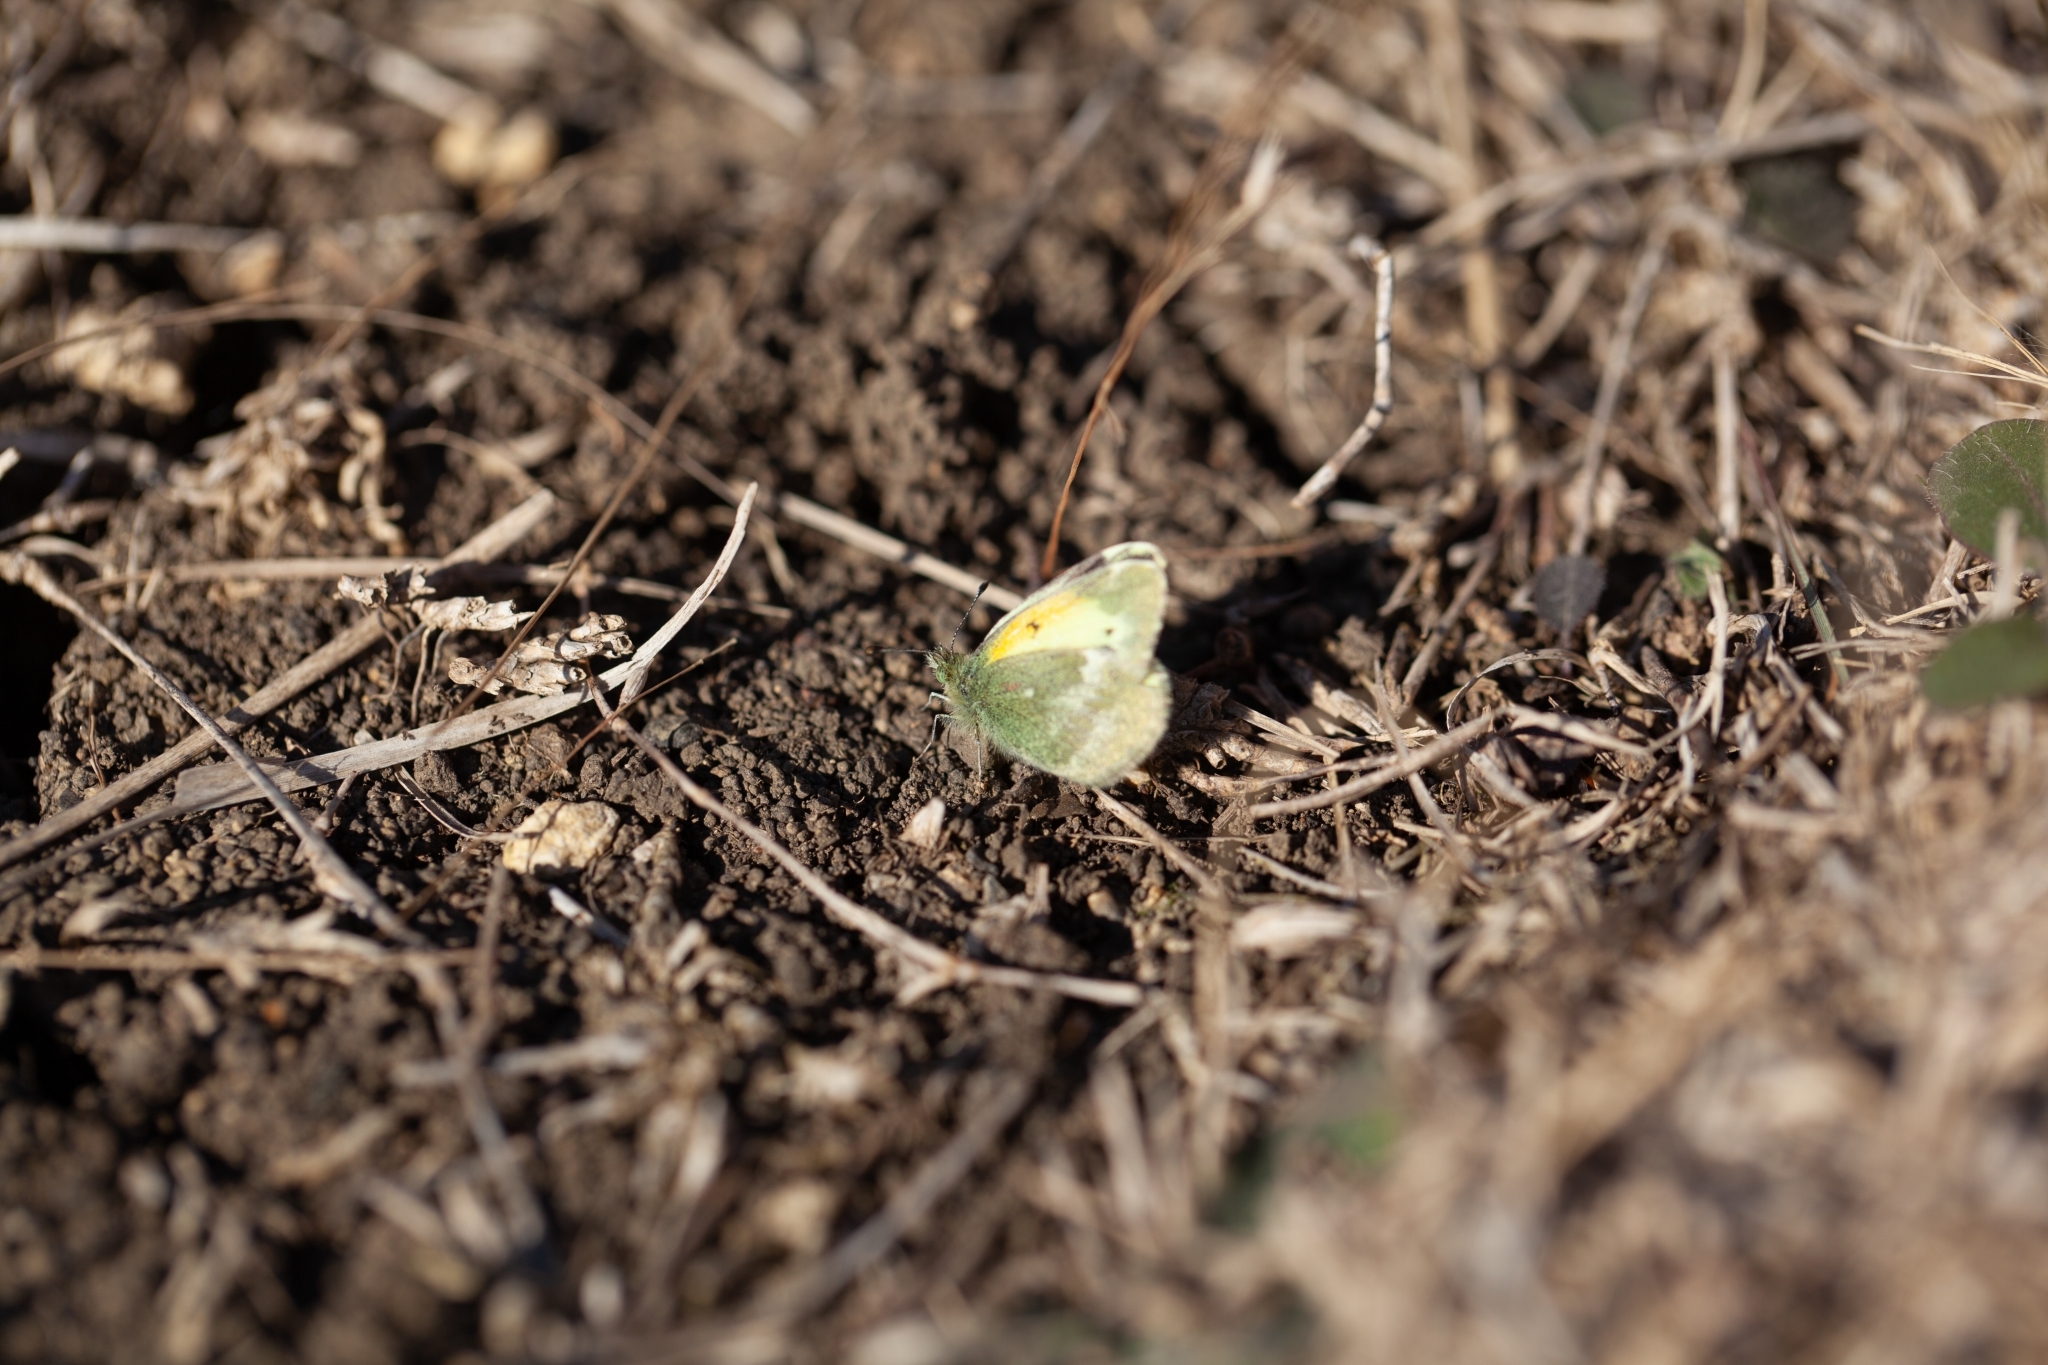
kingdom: Animalia
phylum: Arthropoda
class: Insecta
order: Lepidoptera
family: Pieridae
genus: Nathalis
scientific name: Nathalis iole
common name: Dainty sulphur
